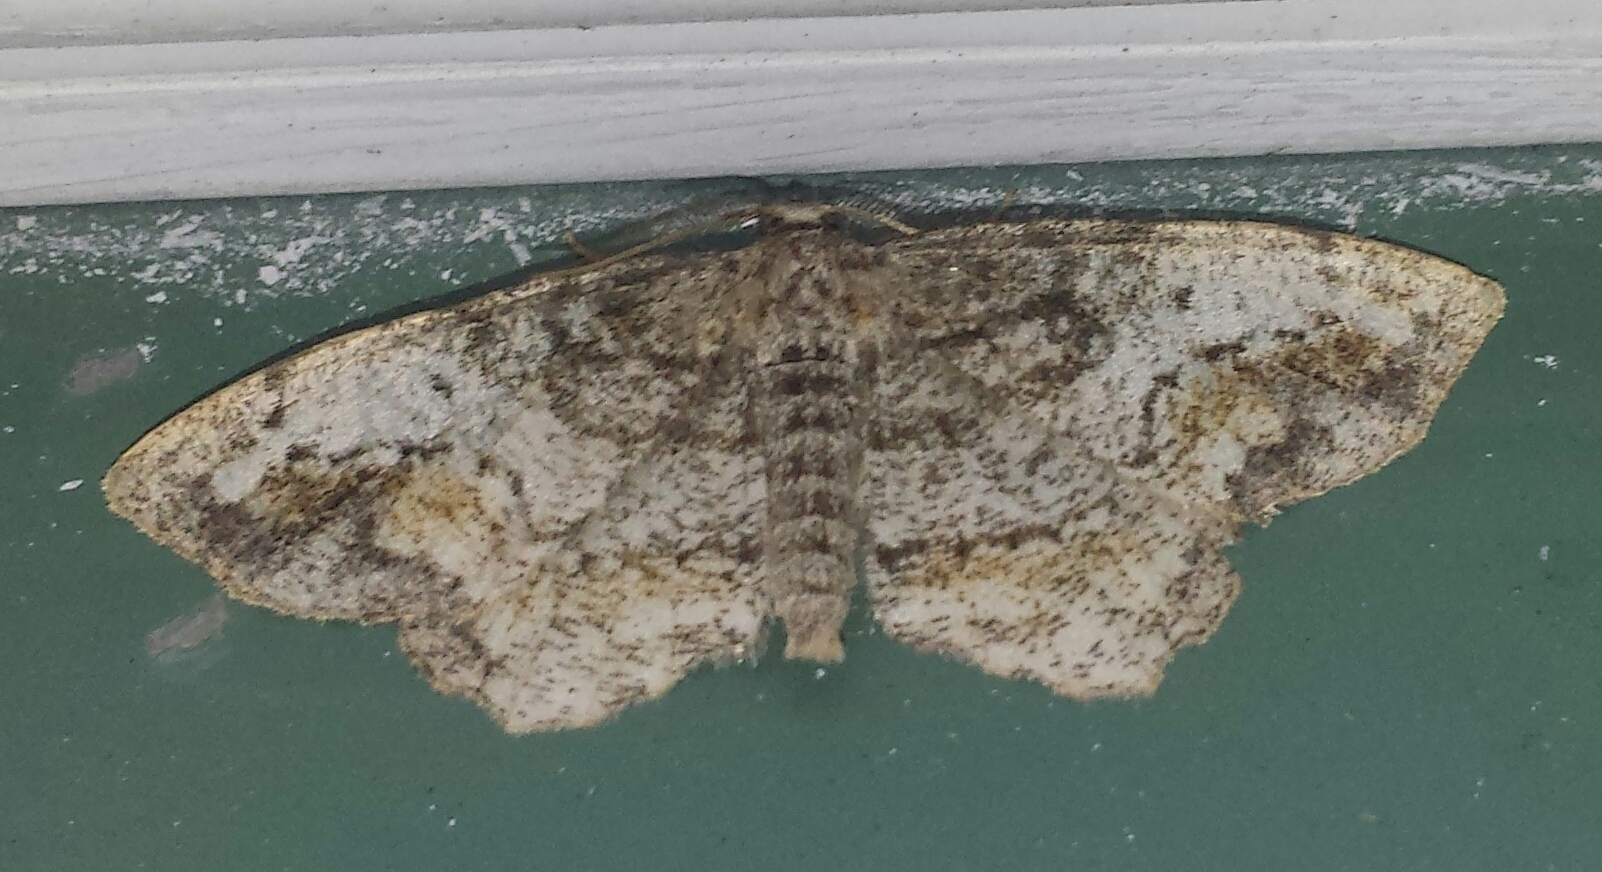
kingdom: Animalia
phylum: Arthropoda
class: Insecta
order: Lepidoptera
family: Geometridae
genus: Hypagyrtis
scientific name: Hypagyrtis unipunctata
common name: One-spotted variant
